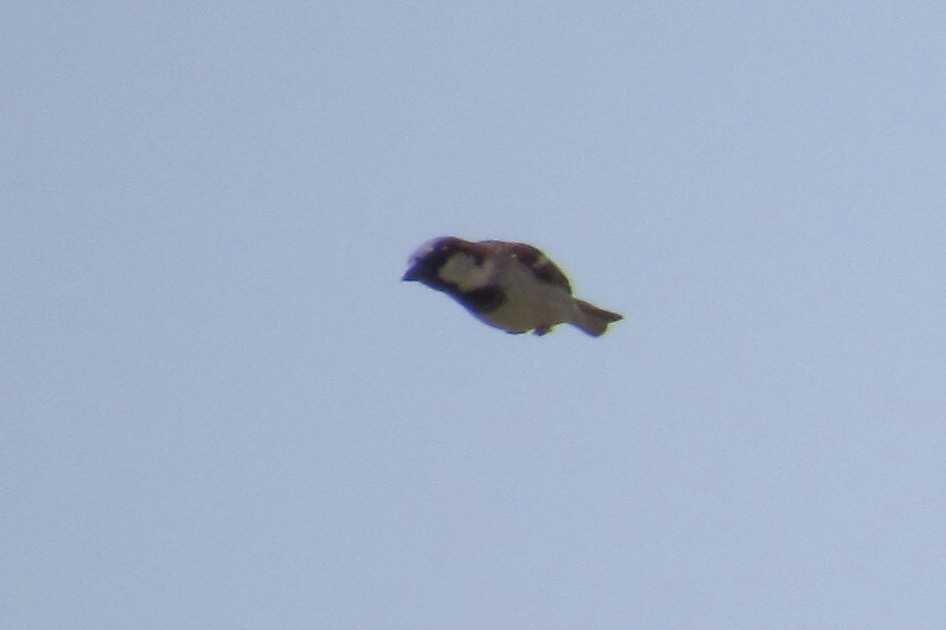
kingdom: Animalia
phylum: Chordata
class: Aves
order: Passeriformes
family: Passeridae
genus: Passer
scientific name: Passer domesticus
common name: House sparrow
